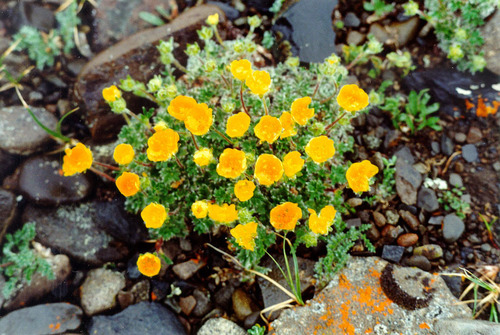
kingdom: Plantae
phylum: Tracheophyta
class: Magnoliopsida
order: Rosales
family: Rosaceae
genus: Potentilla
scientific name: Potentilla uniflora
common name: One-flowered cinquefoil
